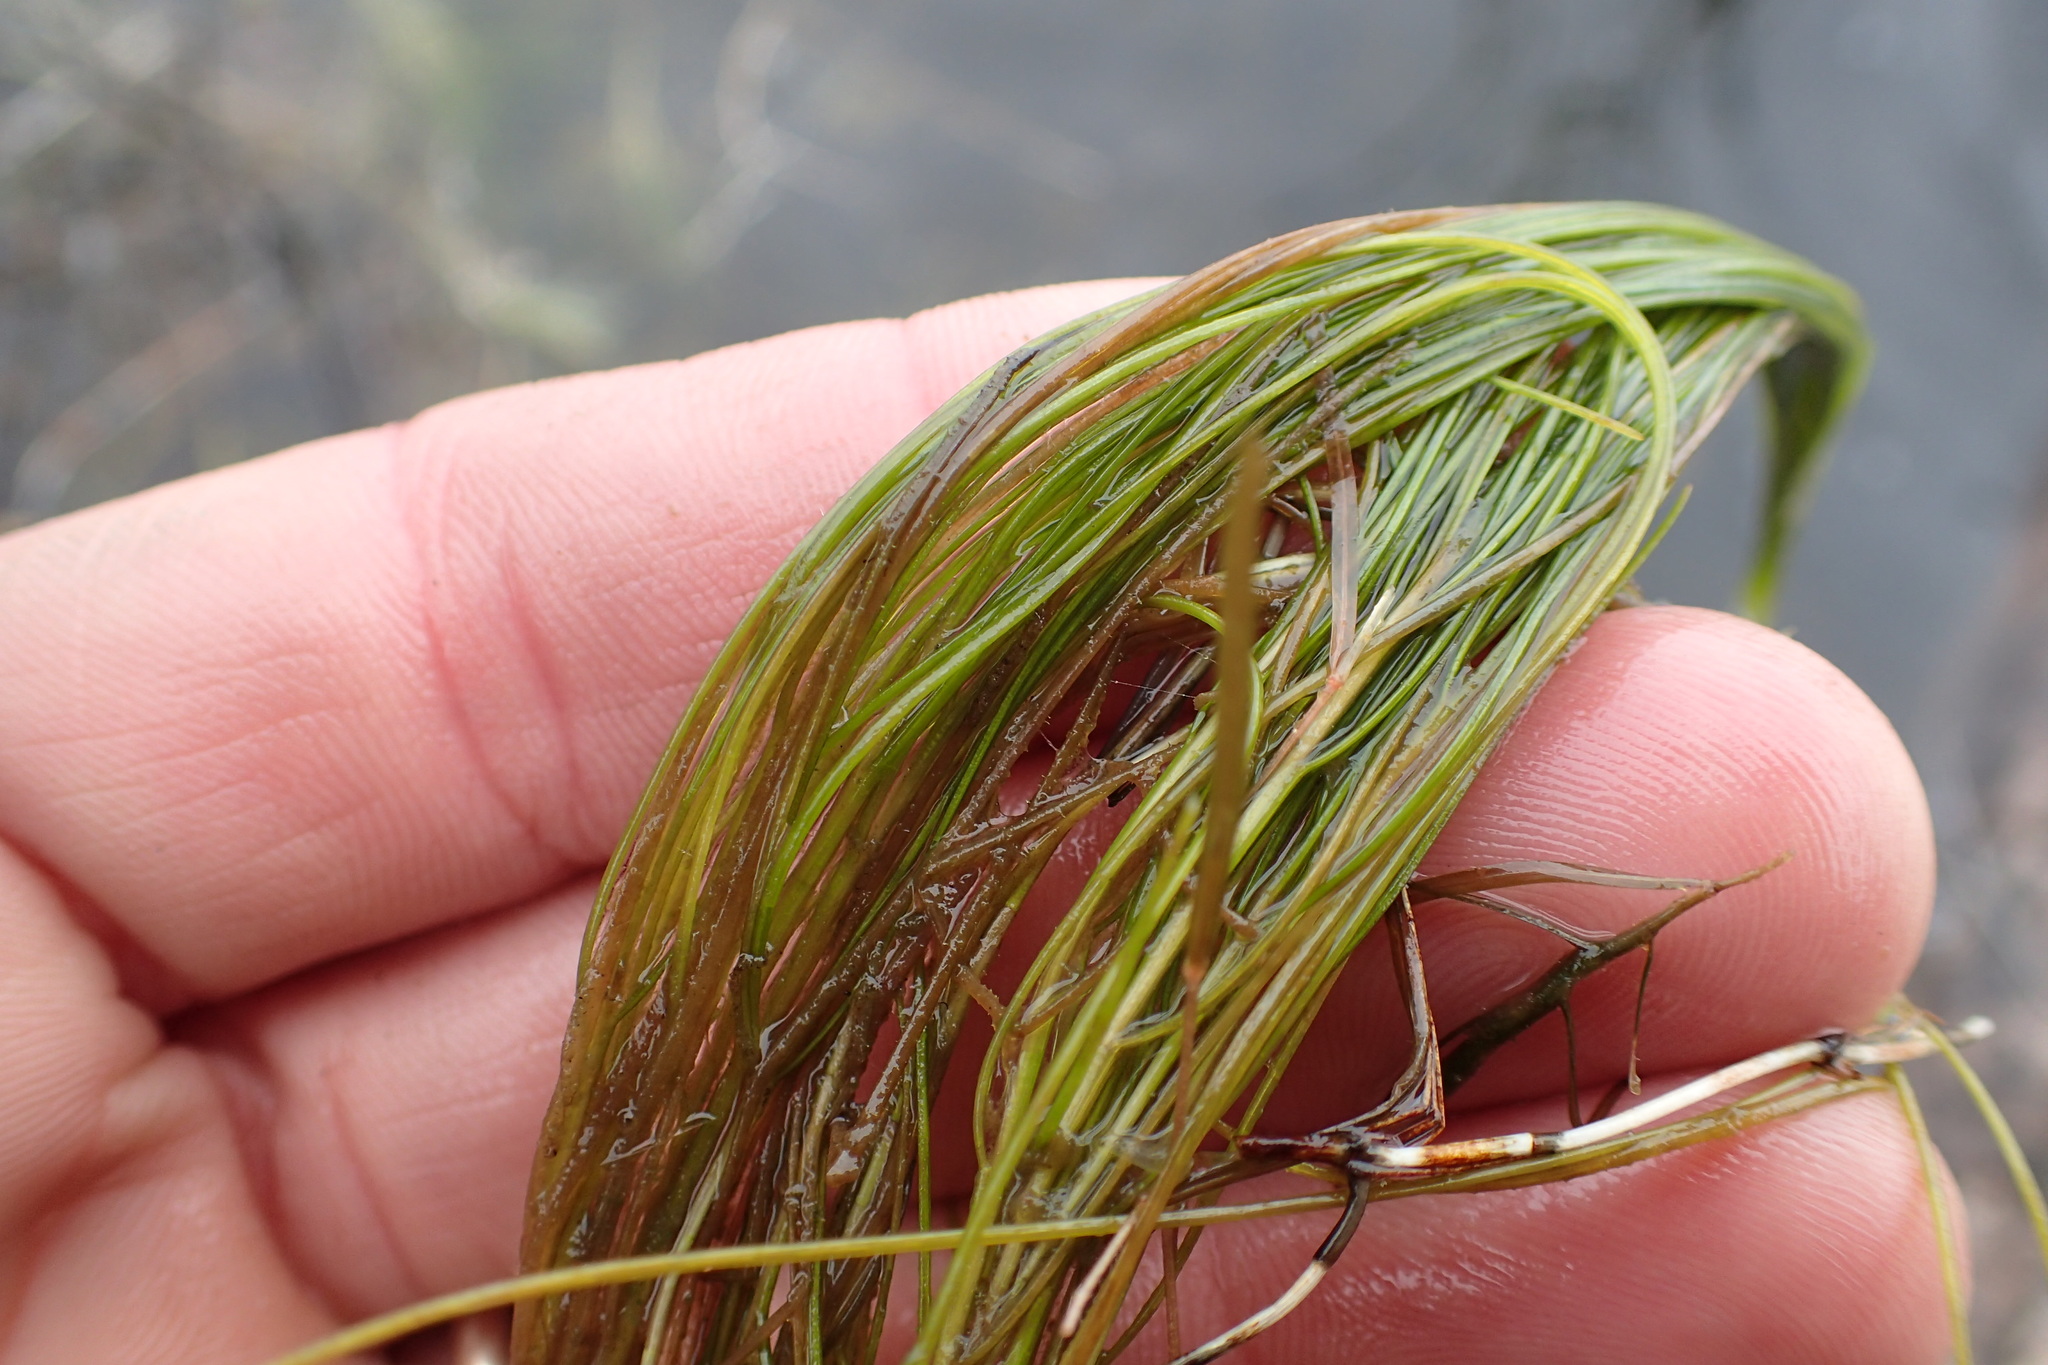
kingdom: Plantae
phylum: Tracheophyta
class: Liliopsida
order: Alismatales
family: Potamogetonaceae
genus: Stuckenia
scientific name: Stuckenia filiformis
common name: Alpine thread-leaved pondweed
